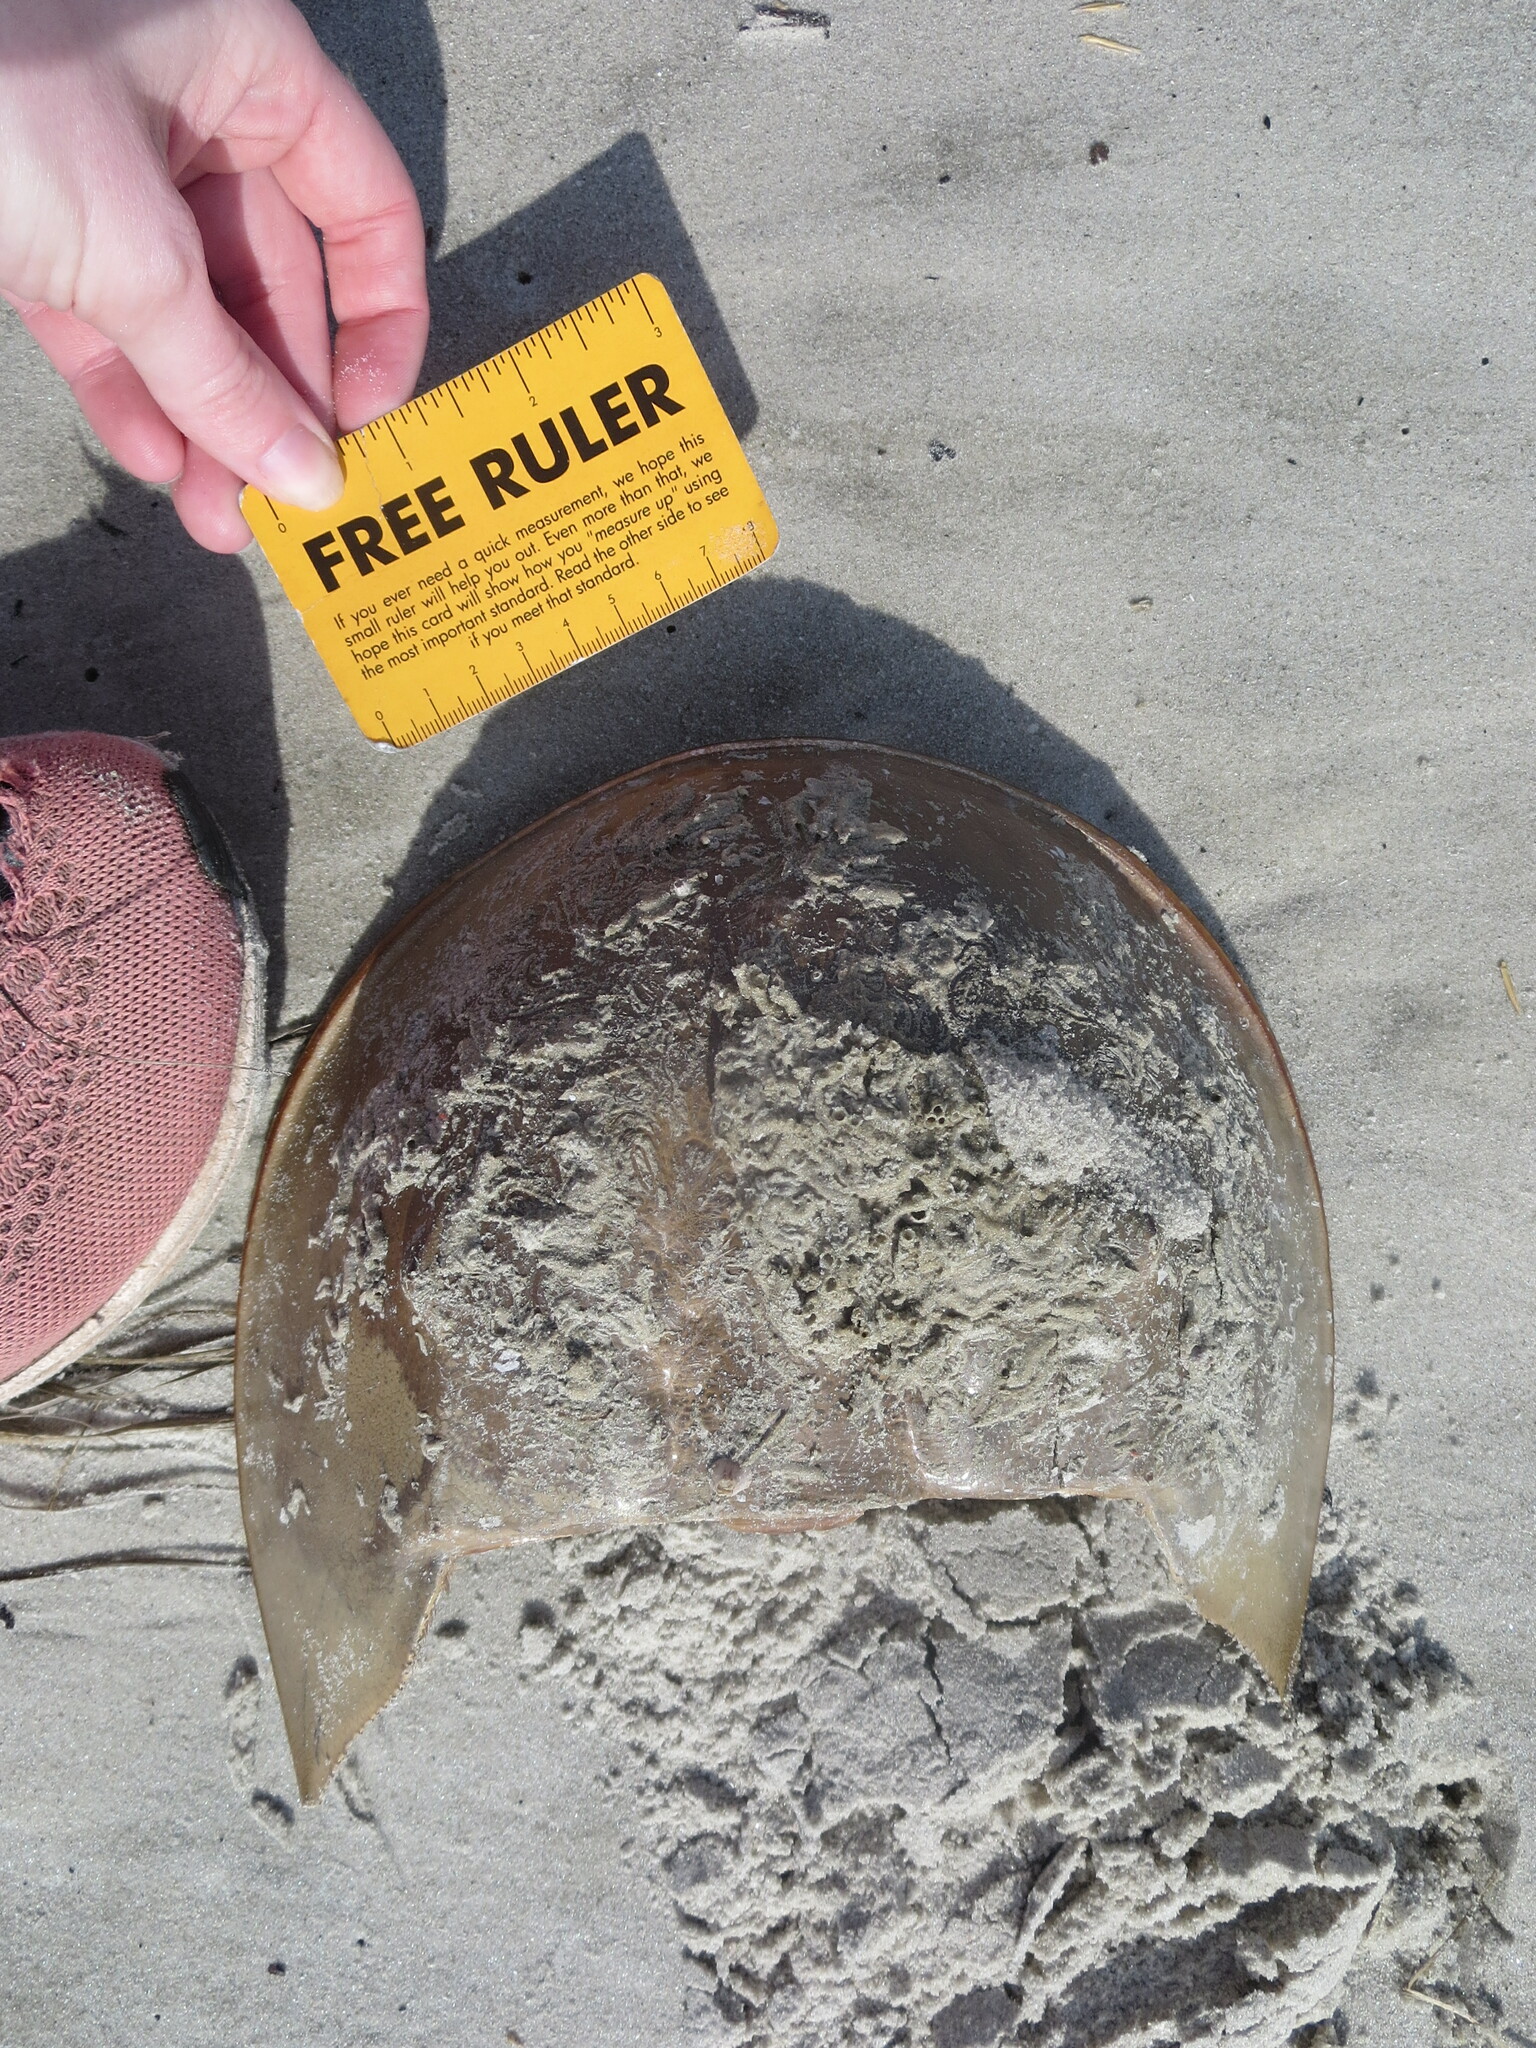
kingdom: Animalia
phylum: Arthropoda
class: Merostomata
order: Xiphosurida
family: Limulidae
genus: Limulus
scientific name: Limulus polyphemus
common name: Horseshoe crab
